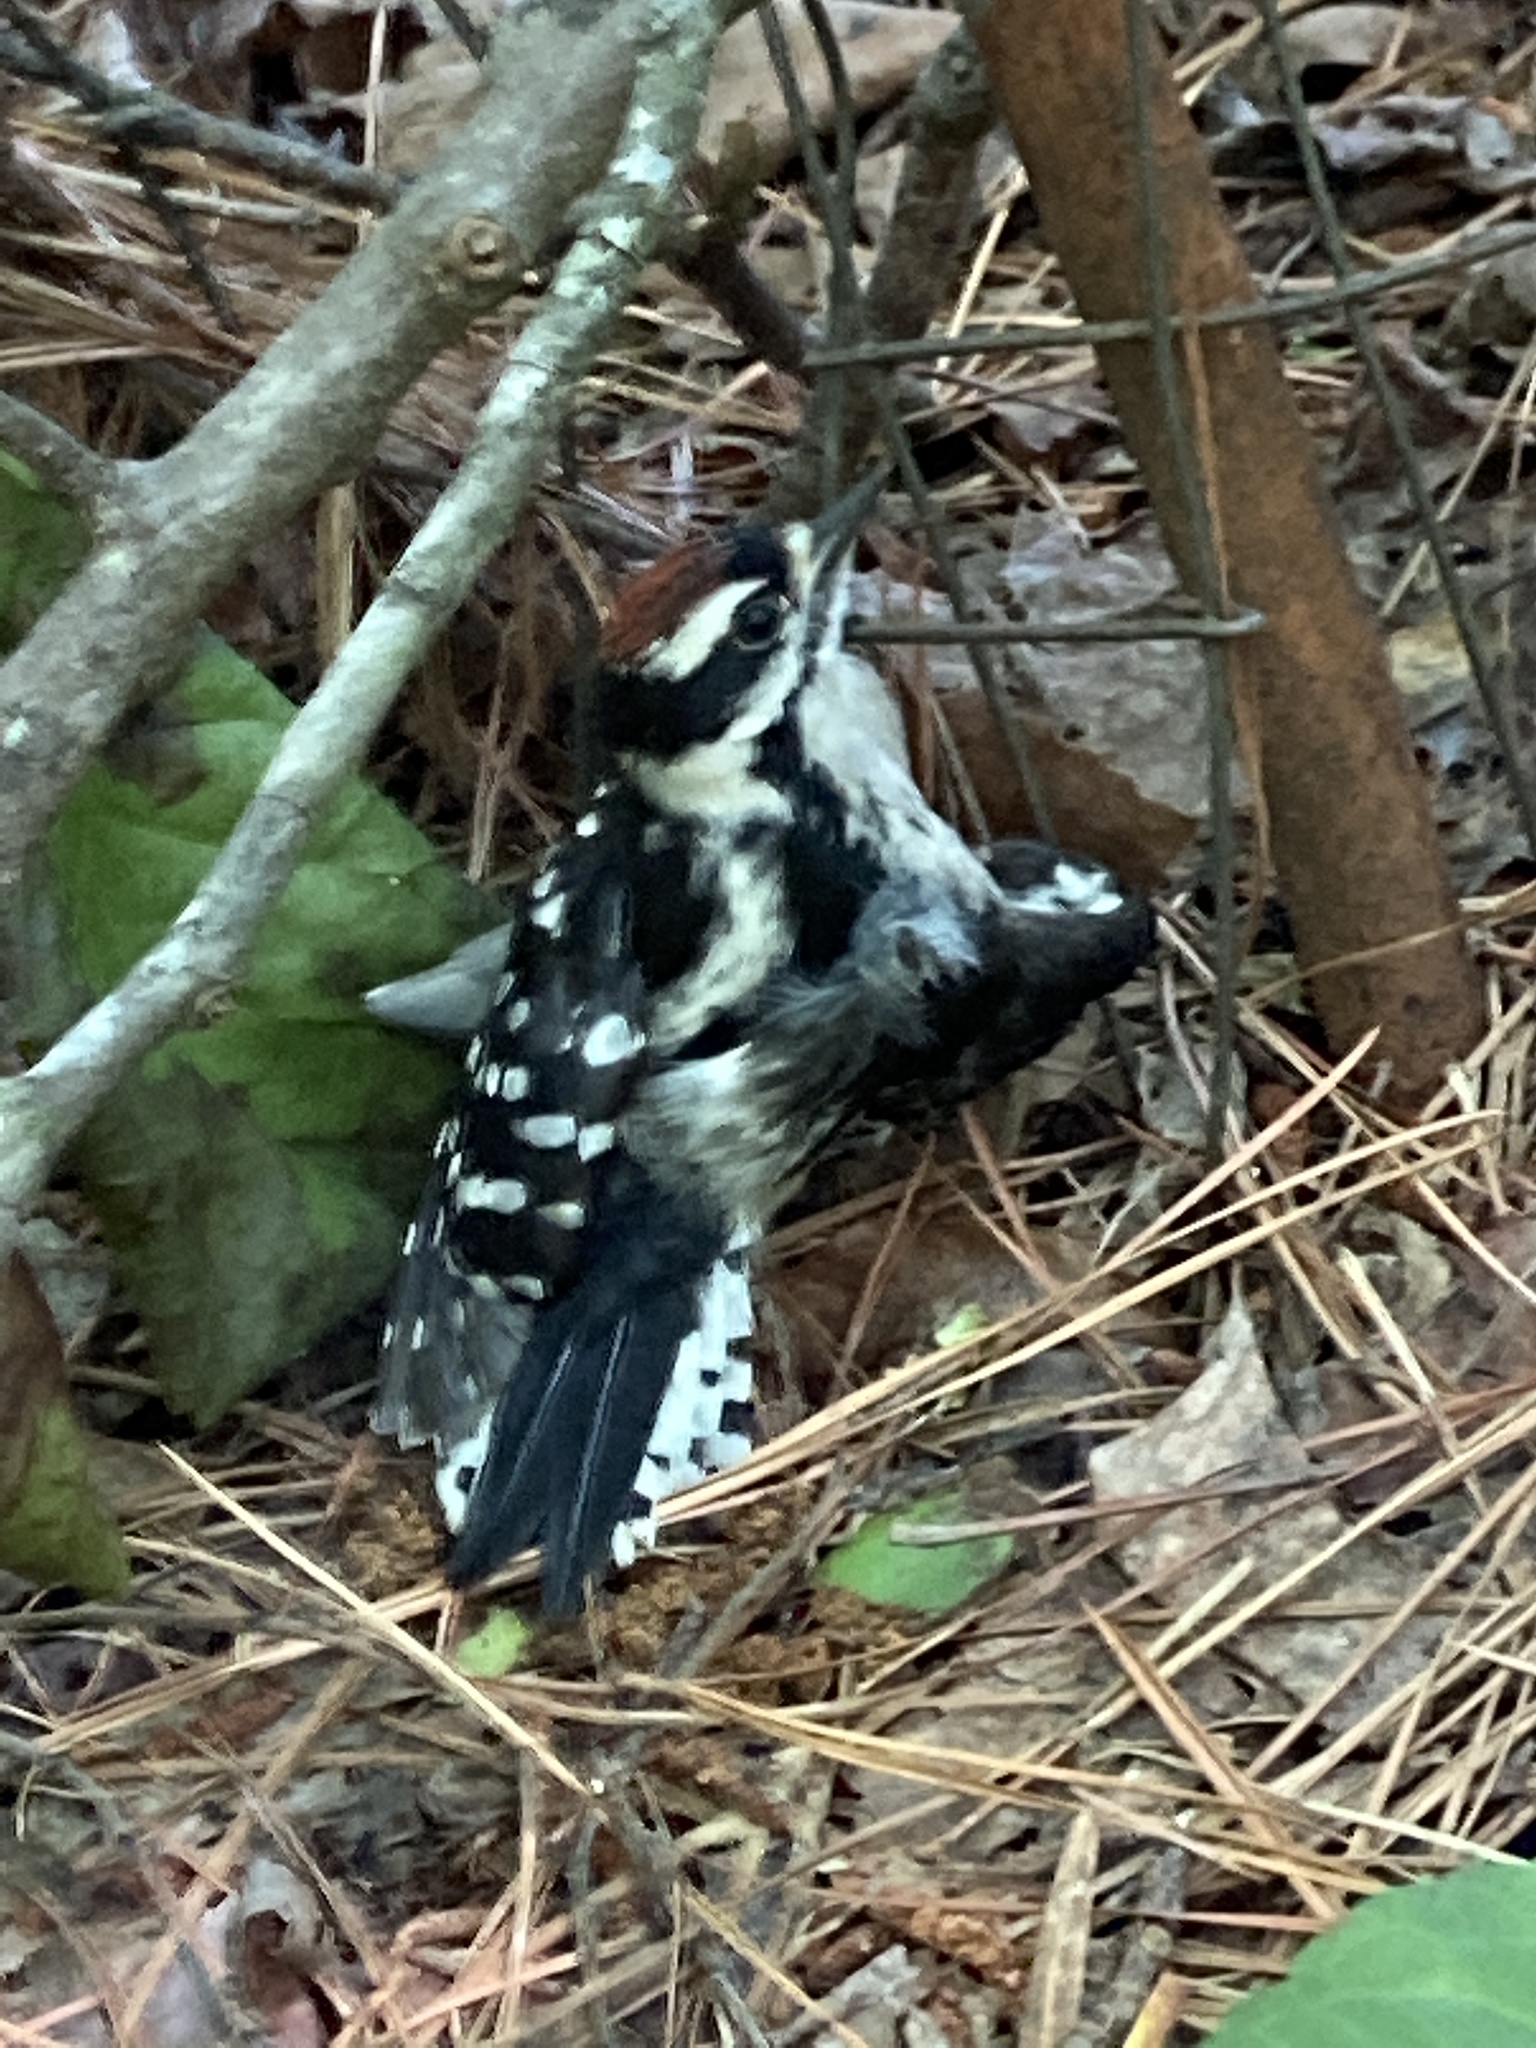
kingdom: Animalia
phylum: Chordata
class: Aves
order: Piciformes
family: Picidae
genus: Dryobates
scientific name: Dryobates pubescens
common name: Downy woodpecker
